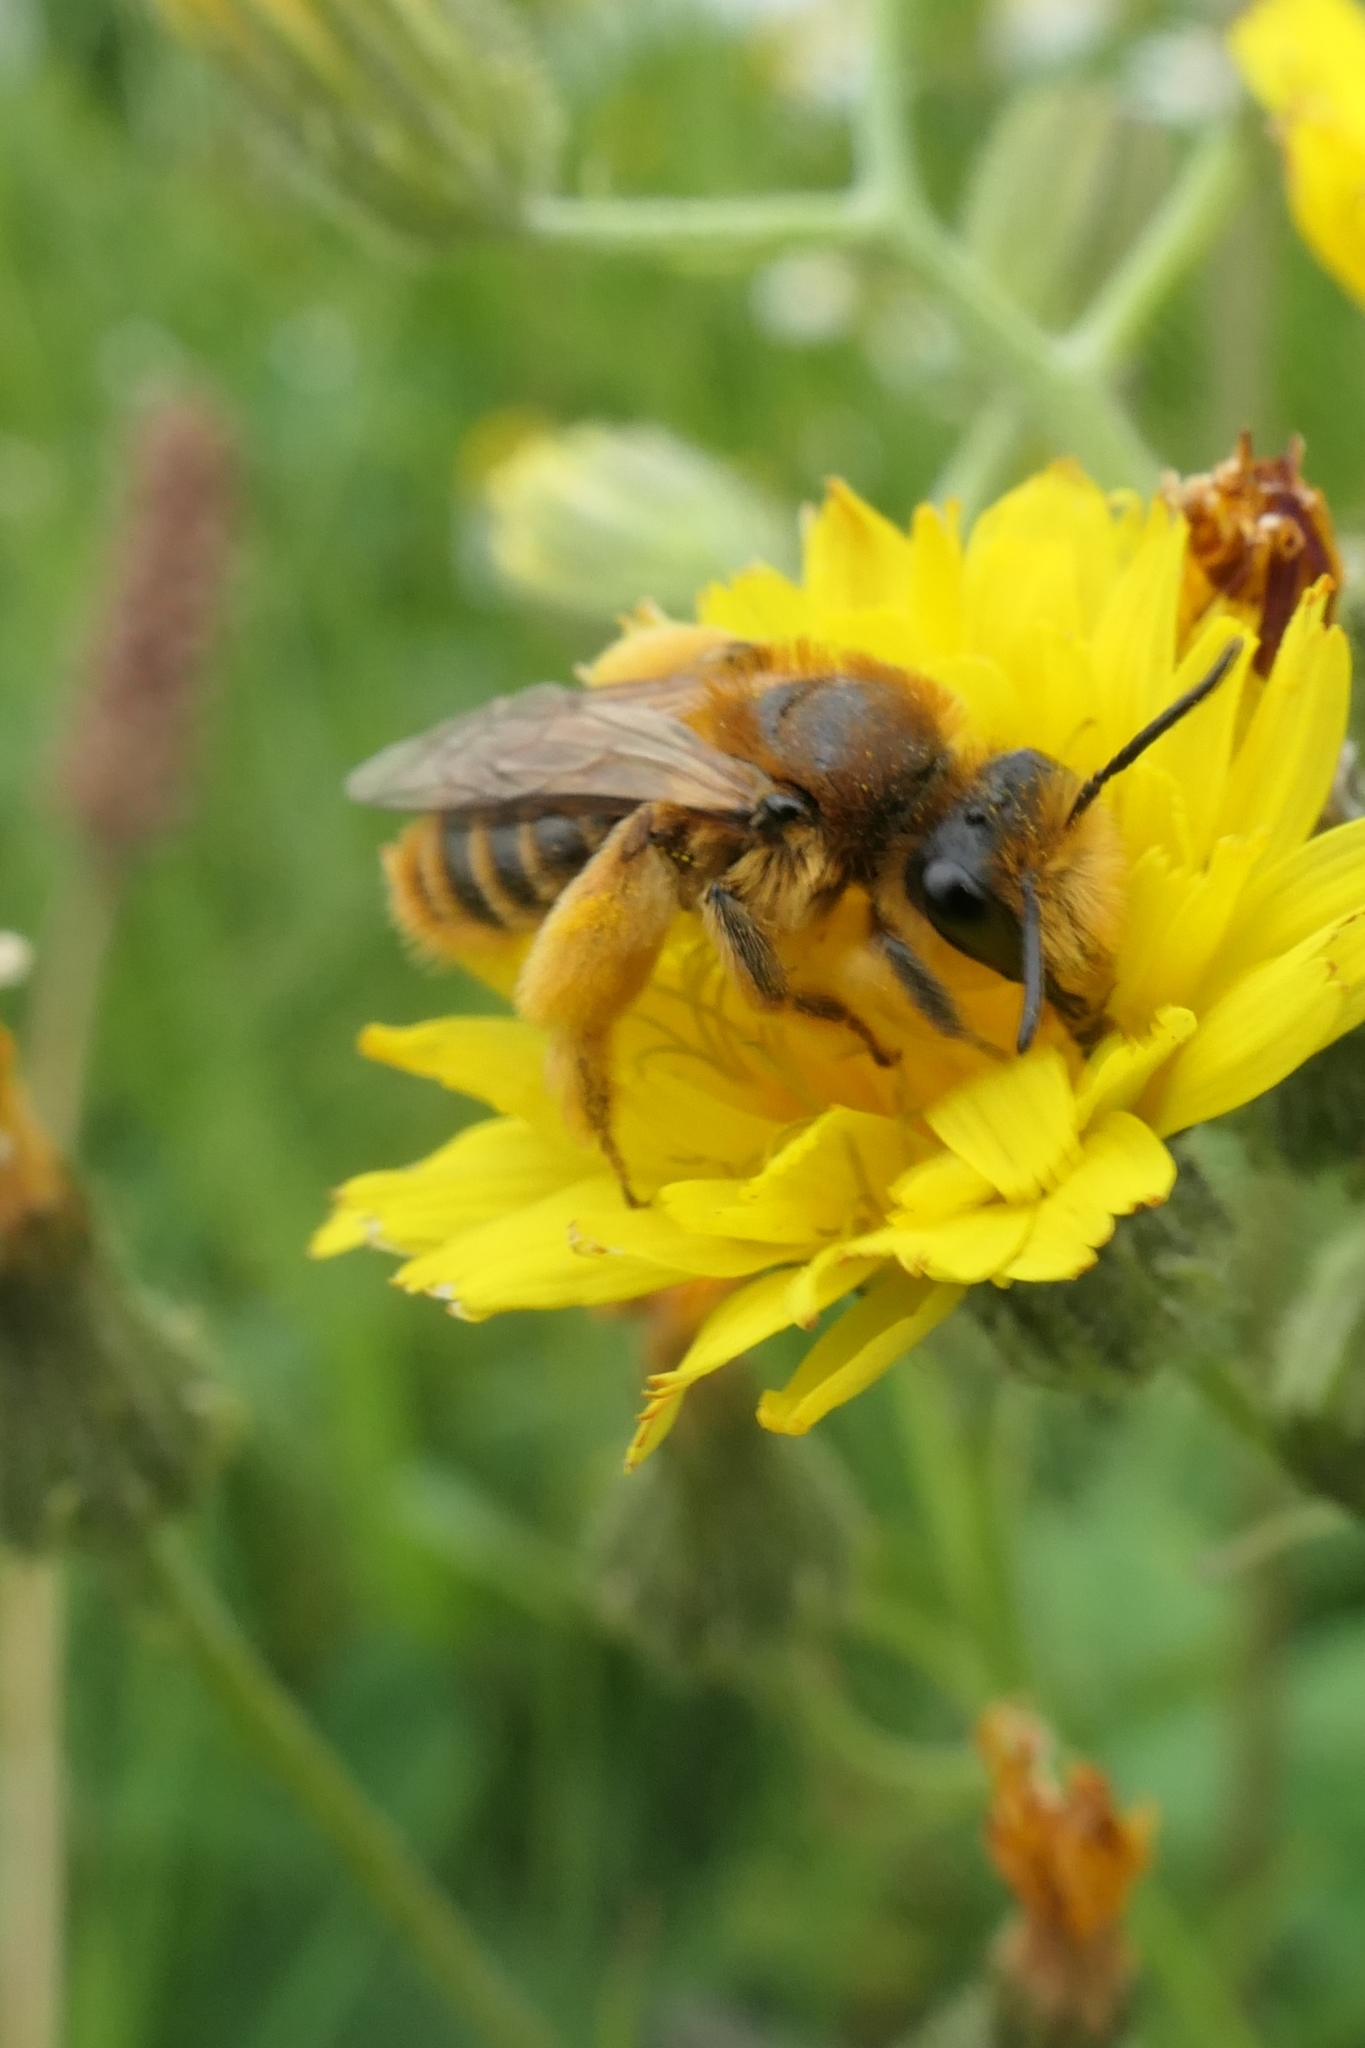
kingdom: Animalia
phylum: Arthropoda
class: Insecta
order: Hymenoptera
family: Colletidae
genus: Leioproctus
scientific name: Leioproctus fulvescens
